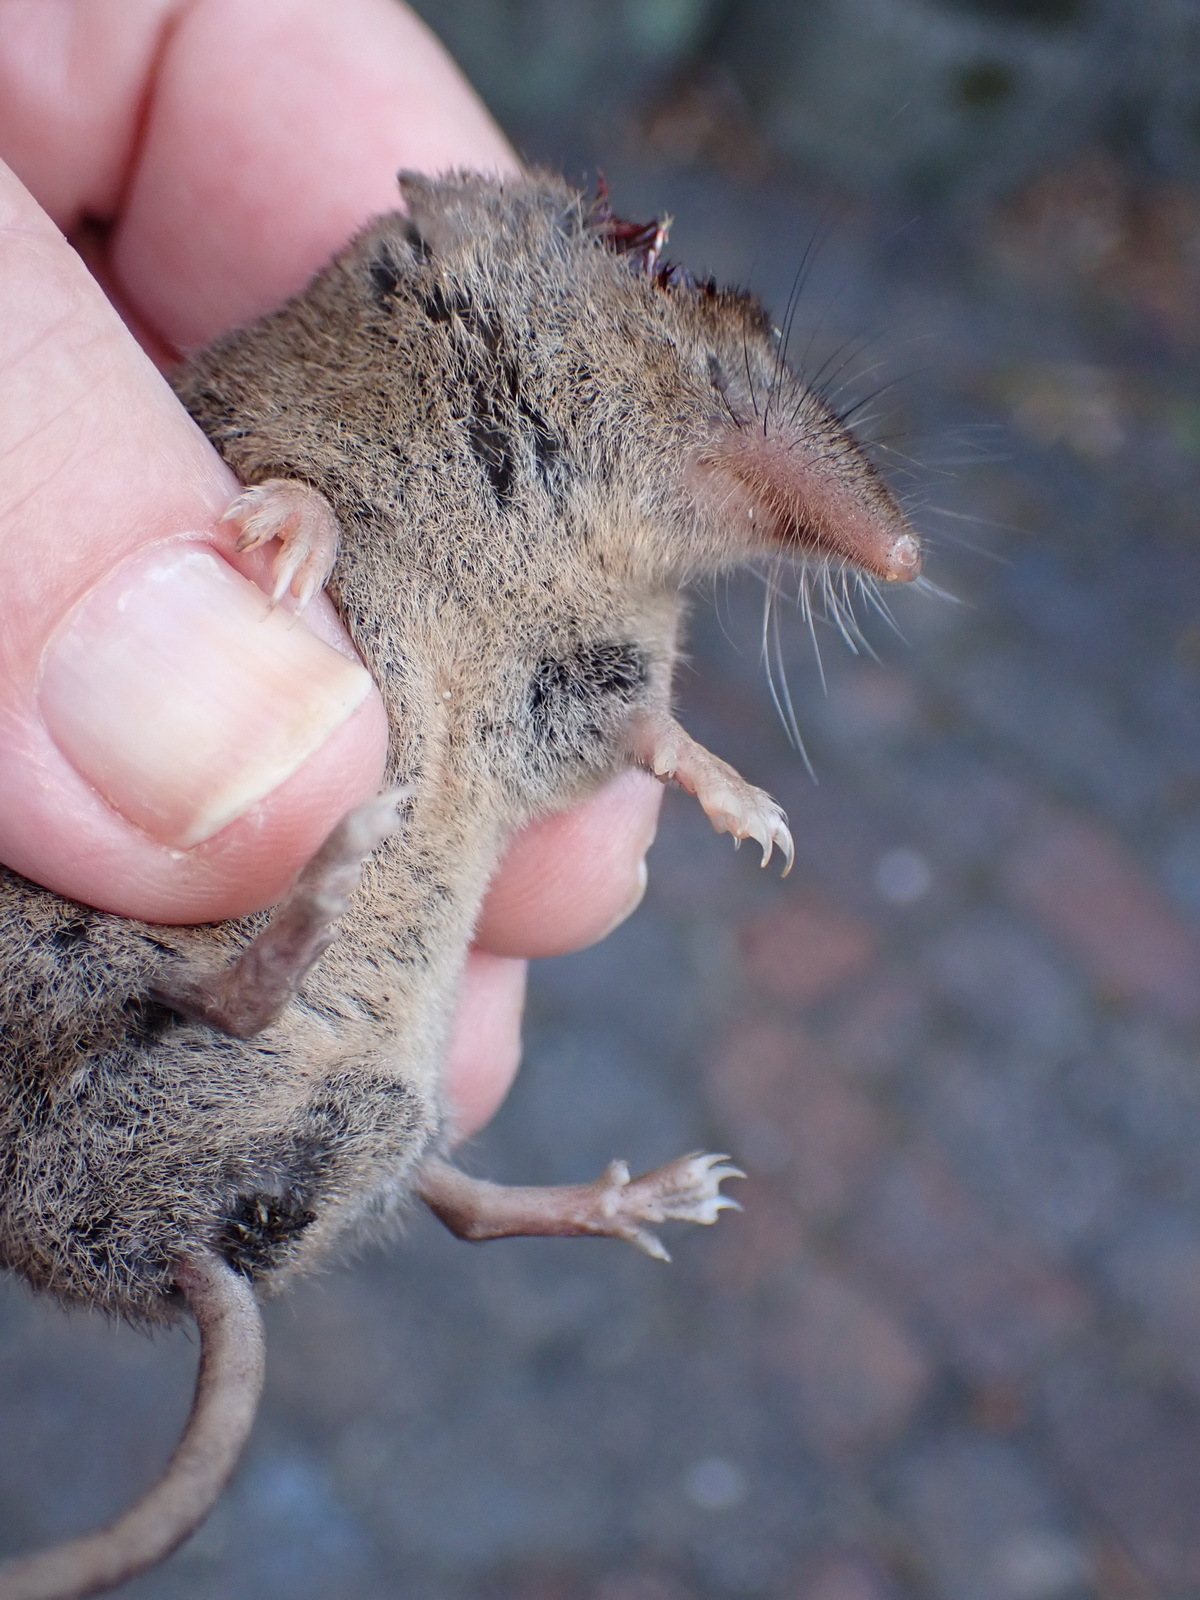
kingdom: Animalia
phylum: Chordata
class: Mammalia
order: Soricomorpha
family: Soricidae
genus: Suncus
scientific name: Suncus infinitesimus
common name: Least dwarf shrew
